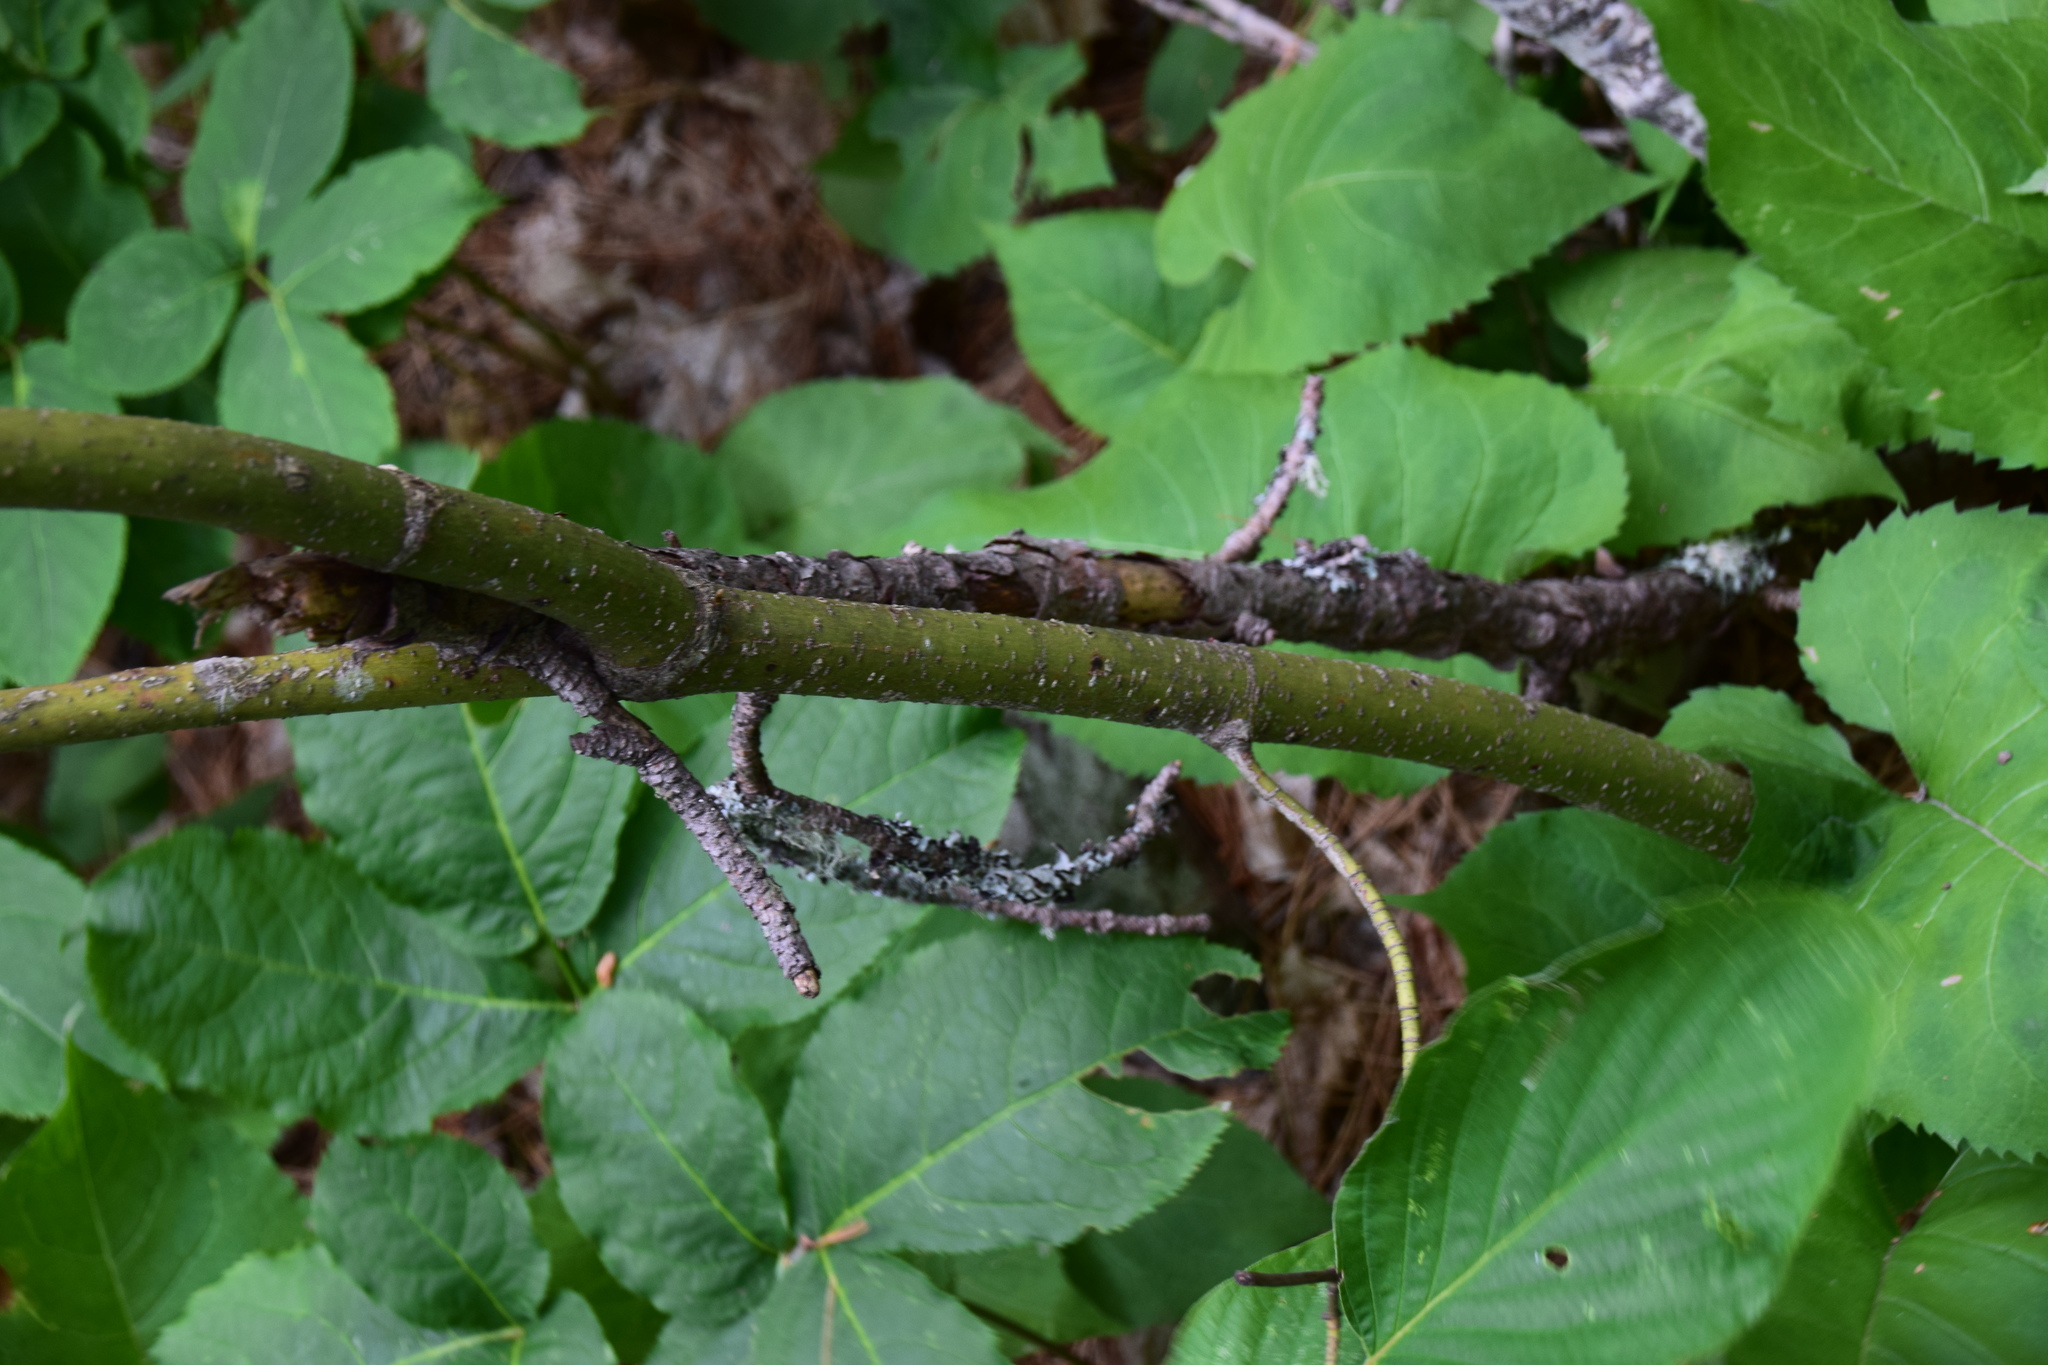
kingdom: Plantae
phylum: Tracheophyta
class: Magnoliopsida
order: Cornales
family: Cornaceae
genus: Cornus
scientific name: Cornus rugosa
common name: Round-leaf dogwood
